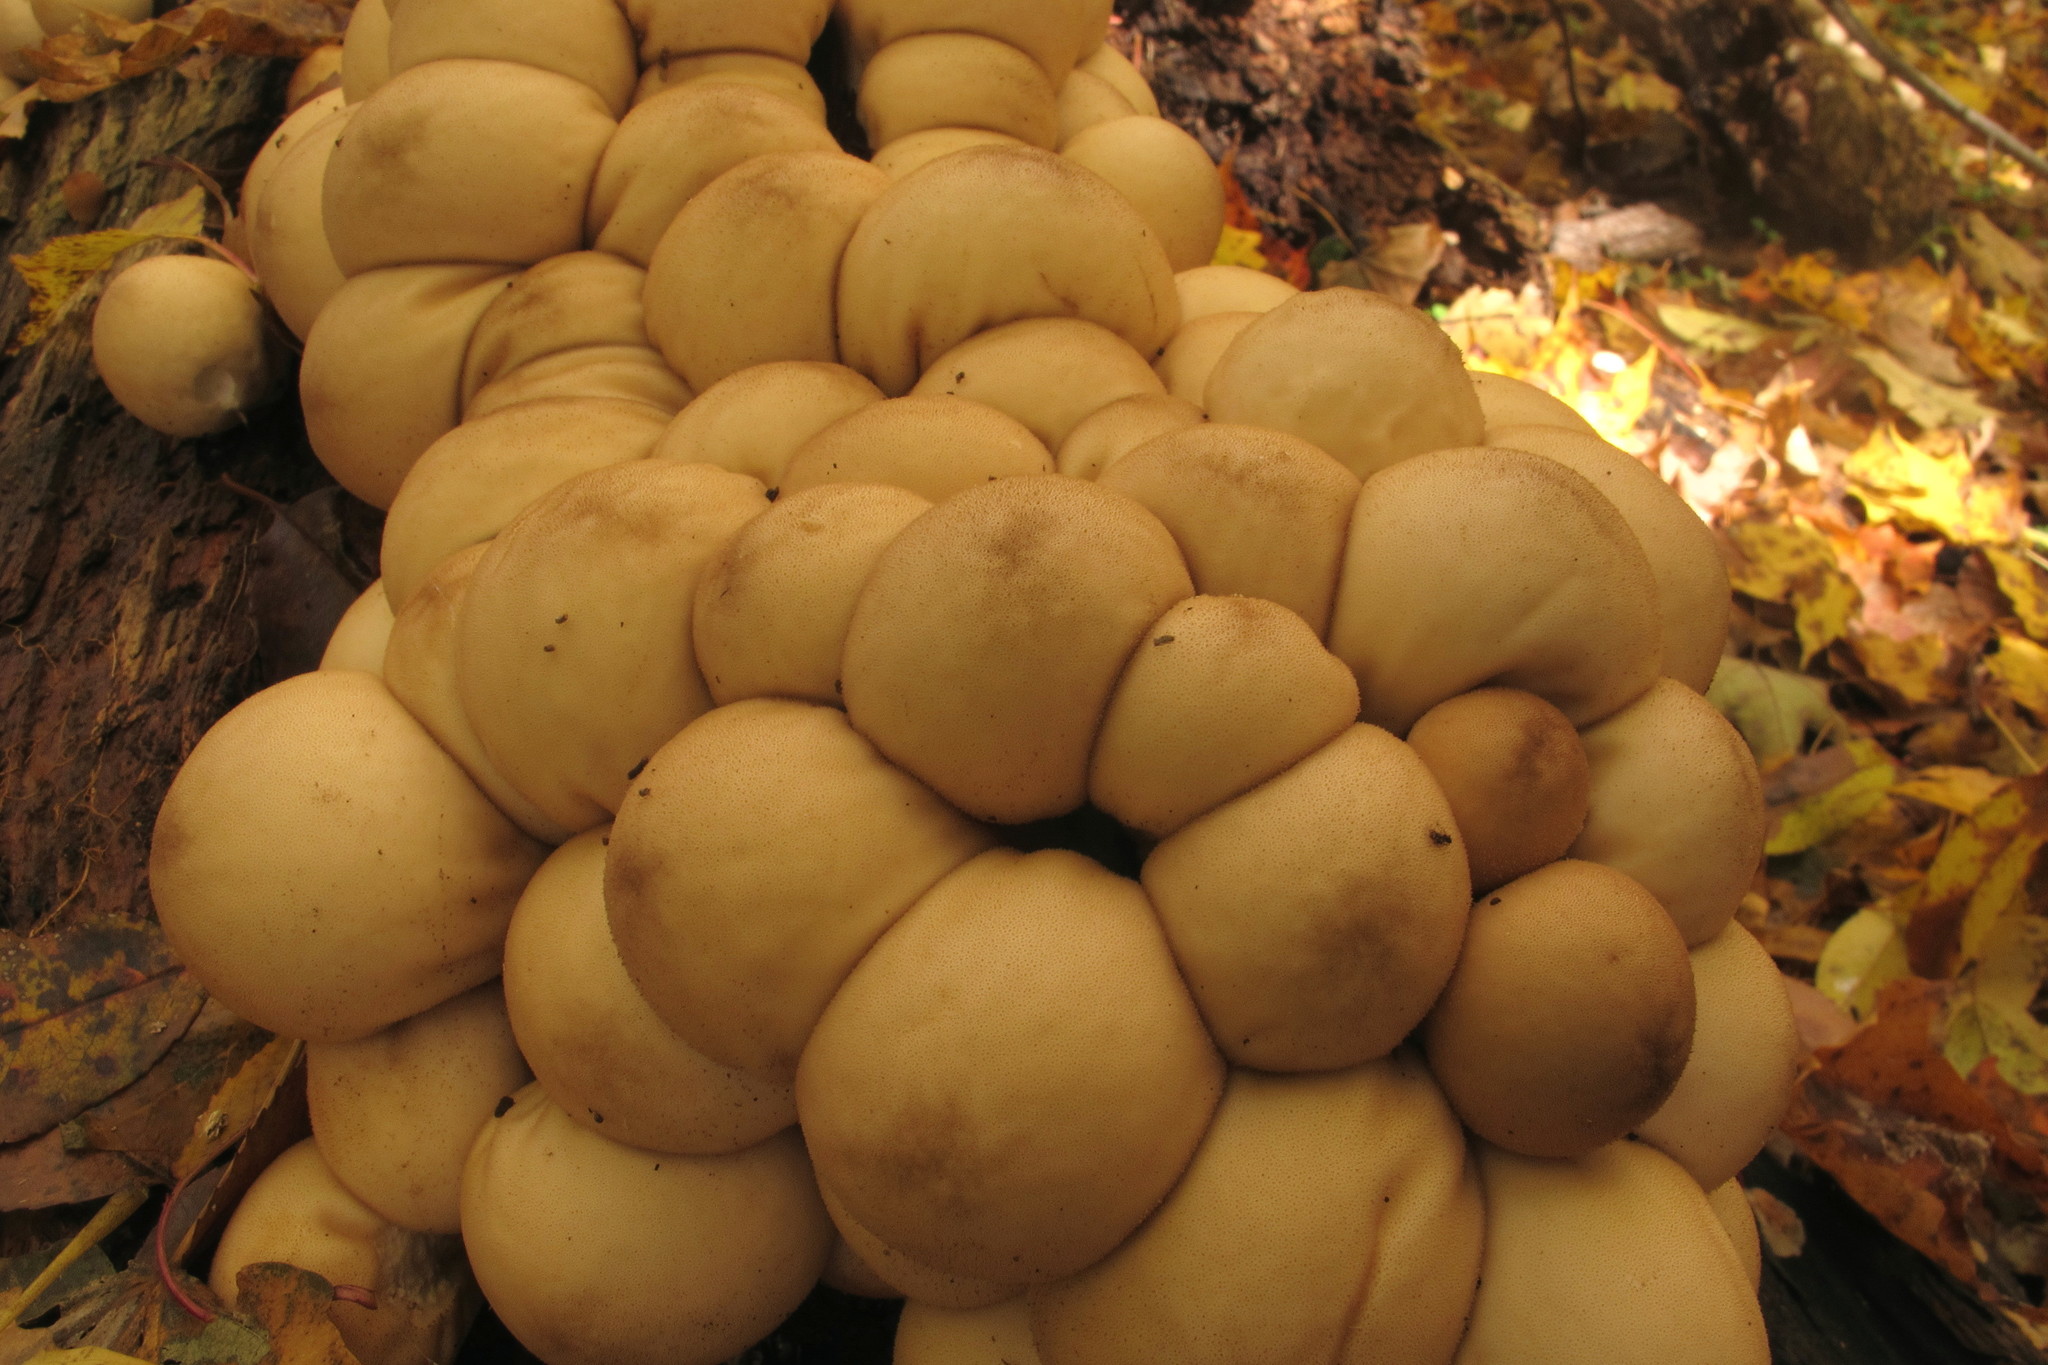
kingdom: Fungi
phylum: Basidiomycota
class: Agaricomycetes
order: Agaricales
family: Lycoperdaceae
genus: Apioperdon
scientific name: Apioperdon pyriforme
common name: Pear-shaped puffball
